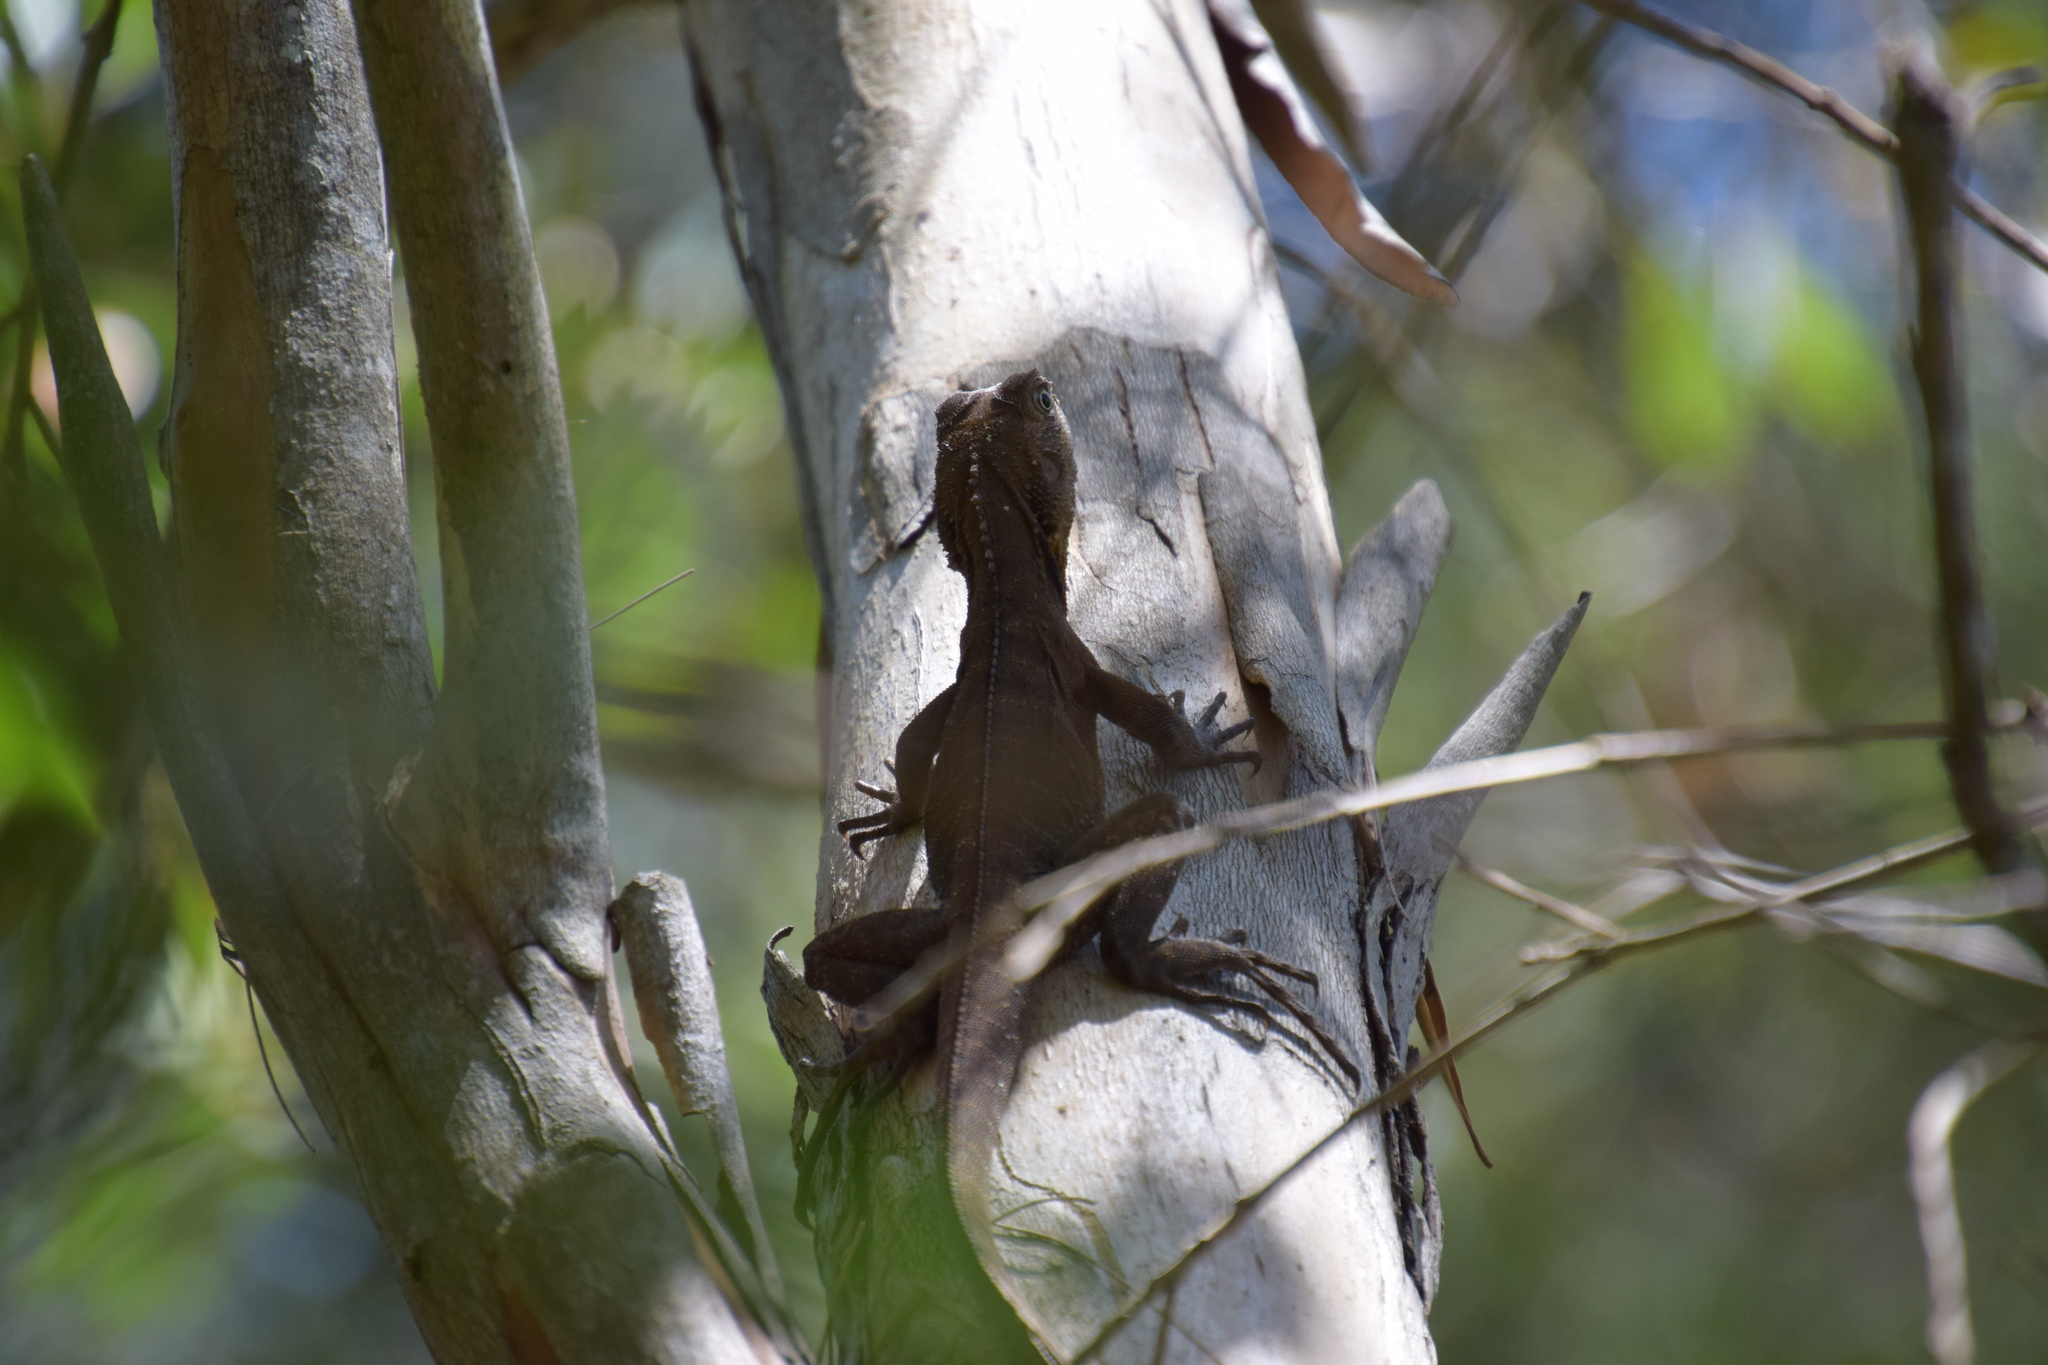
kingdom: Animalia
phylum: Chordata
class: Squamata
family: Agamidae
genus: Intellagama
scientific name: Intellagama lesueurii
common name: Eastern water dragon
